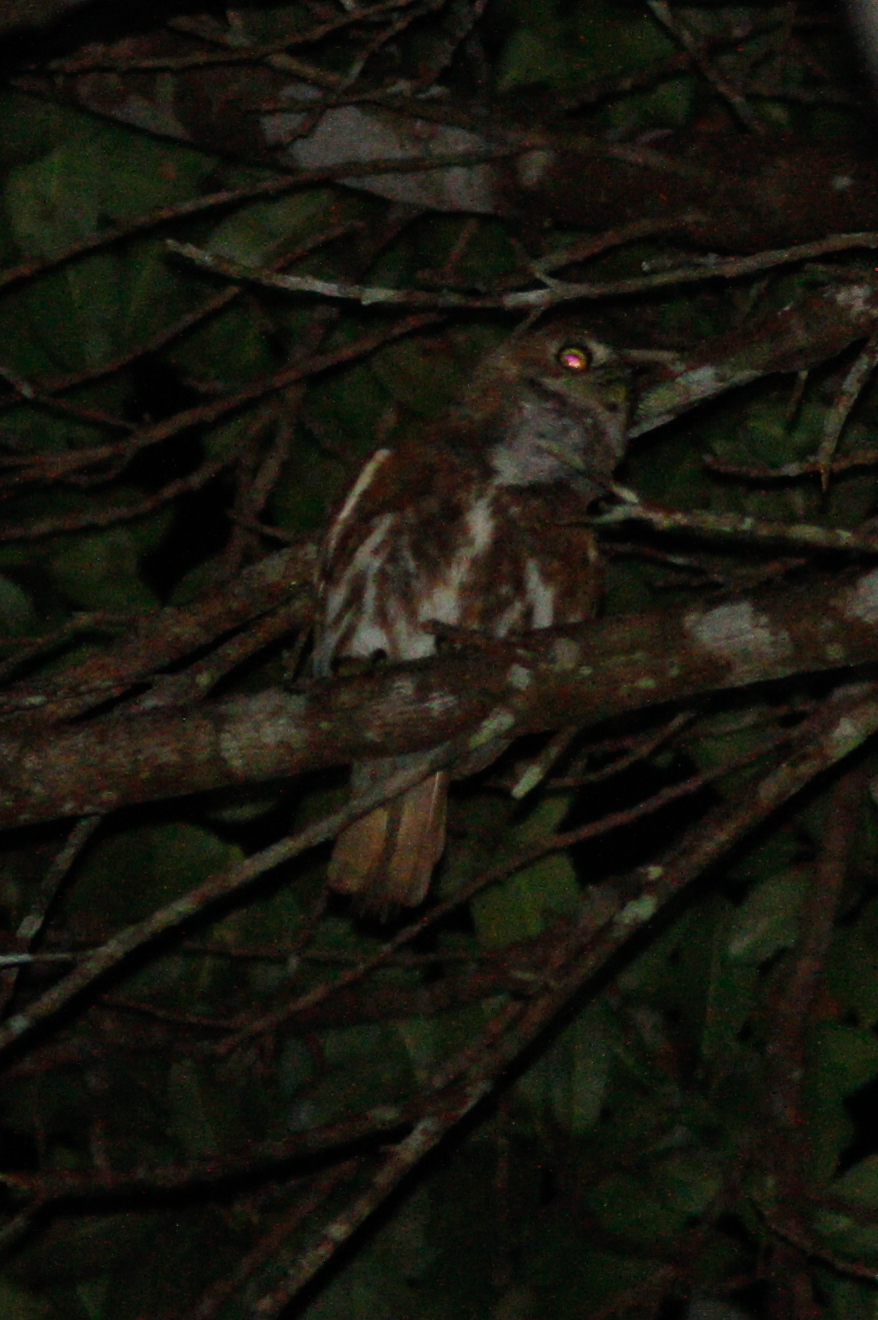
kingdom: Animalia
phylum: Chordata
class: Aves
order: Strigiformes
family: Strigidae
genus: Glaucidium
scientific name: Glaucidium brasilianum
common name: Ferruginous pygmy-owl
